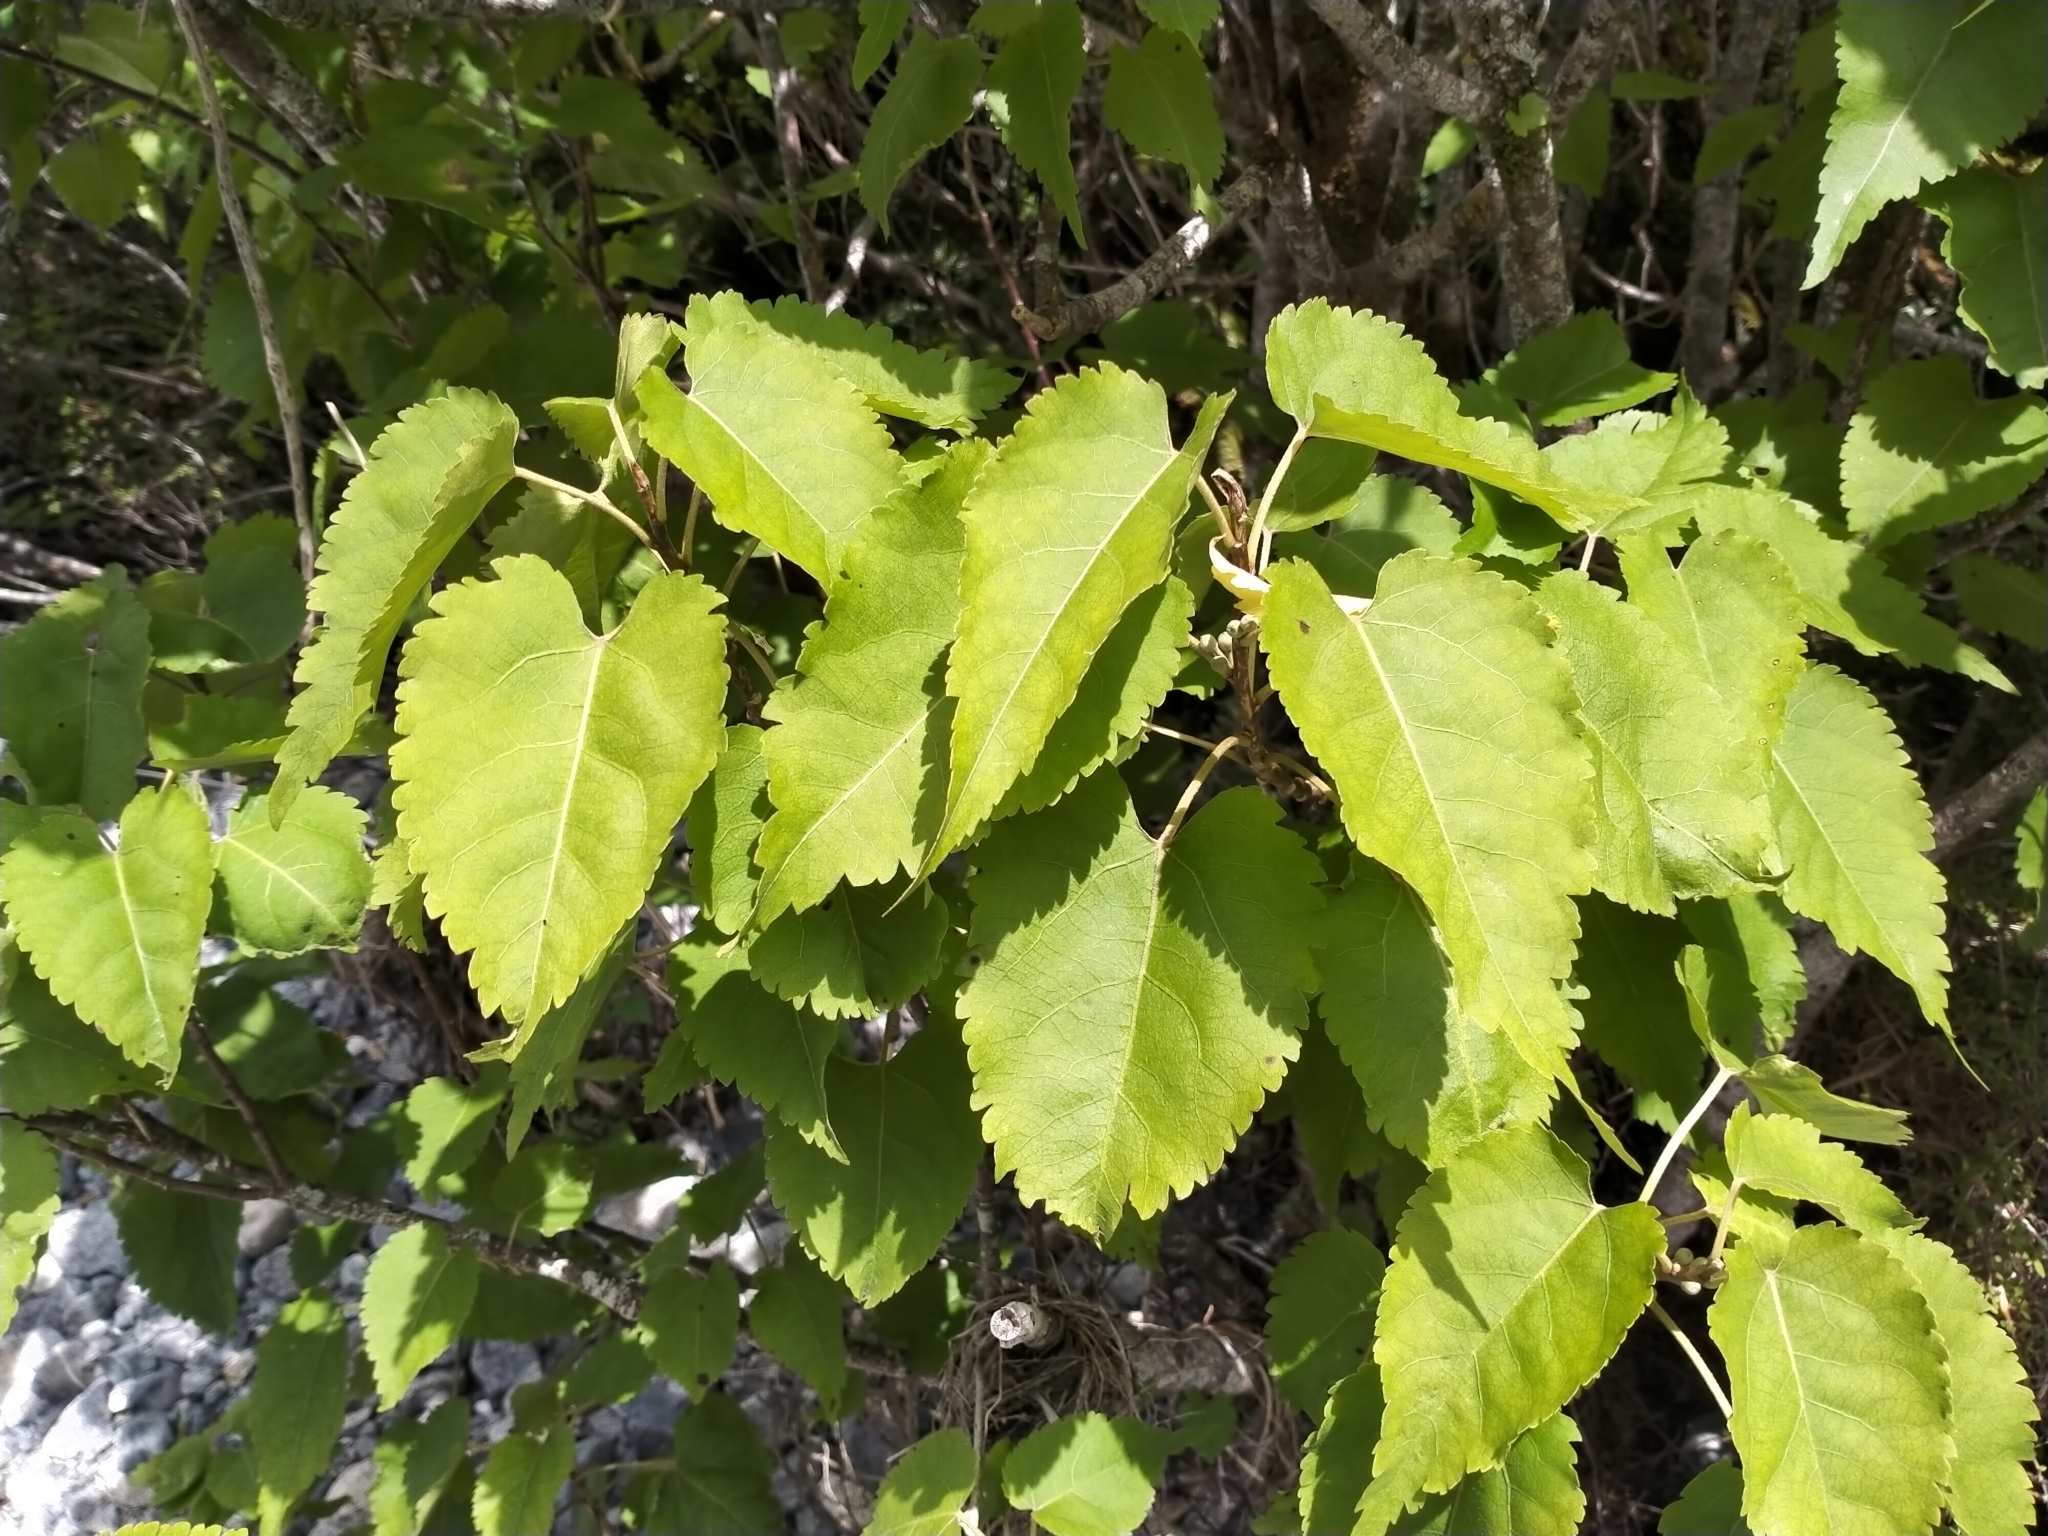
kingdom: Plantae
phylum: Tracheophyta
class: Magnoliopsida
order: Malvales
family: Malvaceae
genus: Hoheria
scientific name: Hoheria glabrata
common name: Mountain-ribbon
